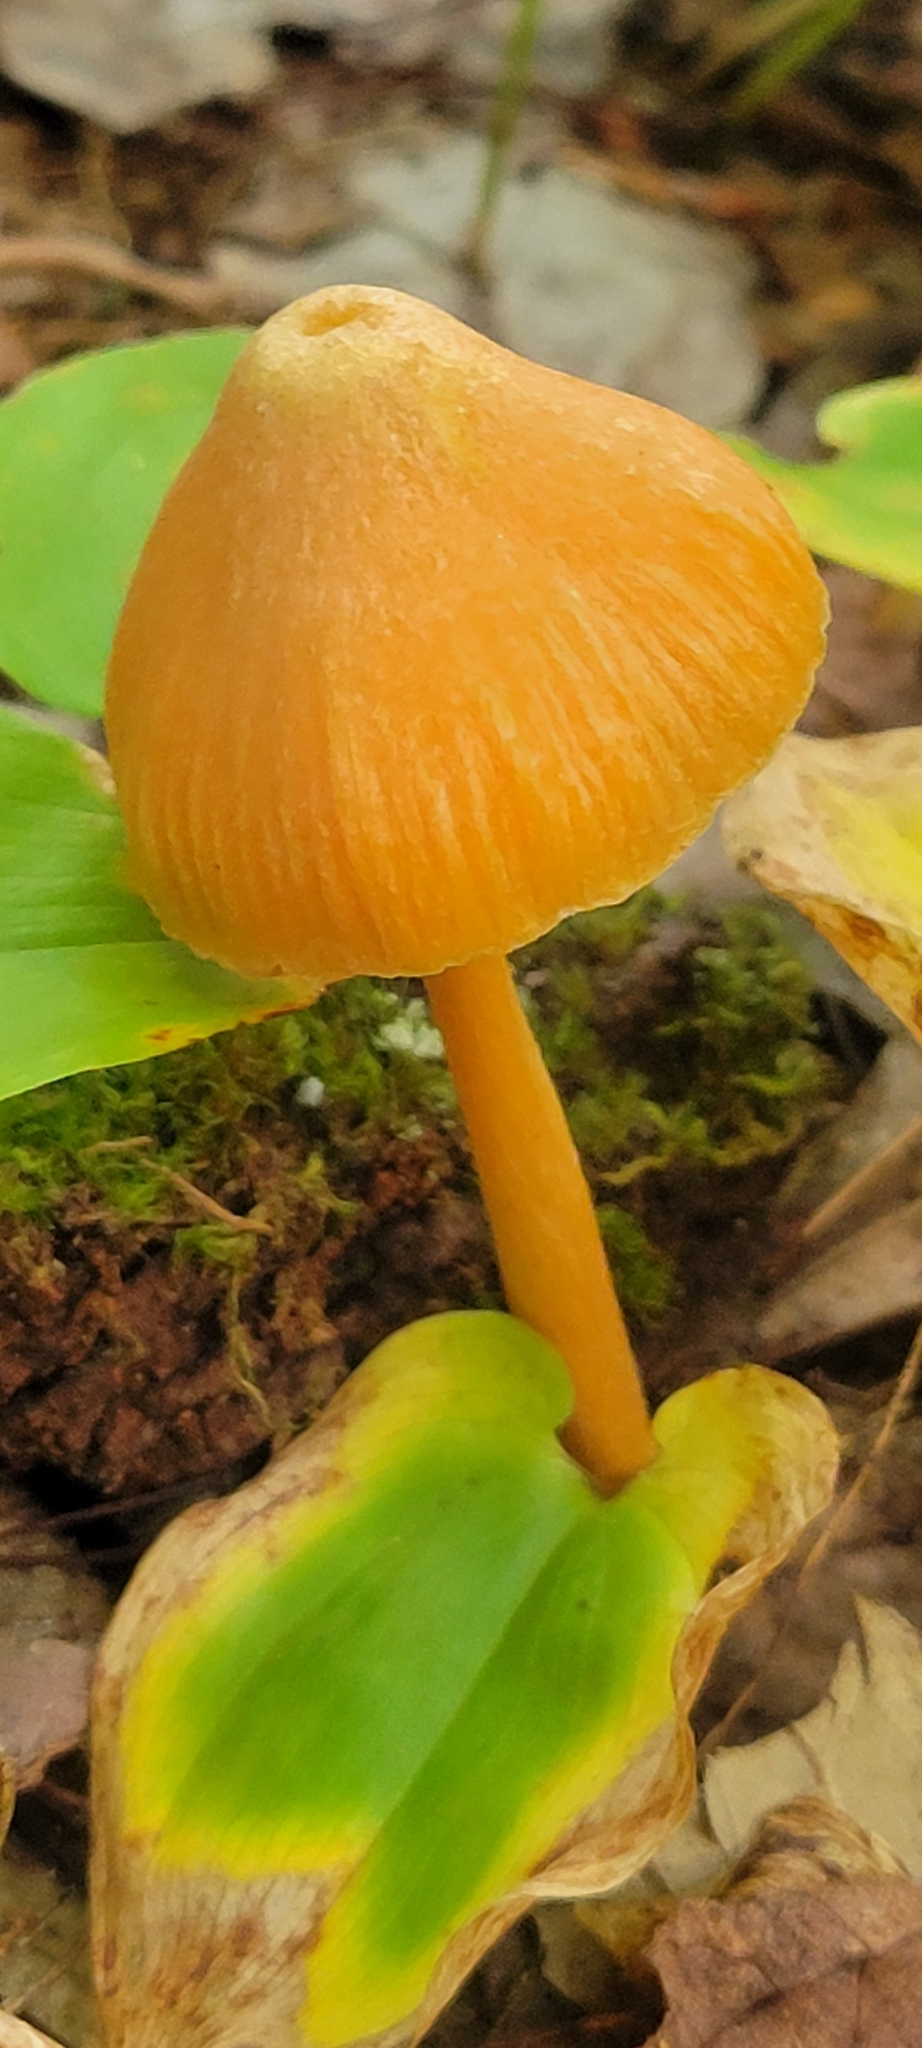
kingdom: Fungi
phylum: Basidiomycota
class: Agaricomycetes
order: Agaricales
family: Entolomataceae
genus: Entoloma
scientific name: Entoloma quadratum
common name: Salmon pinkgill
